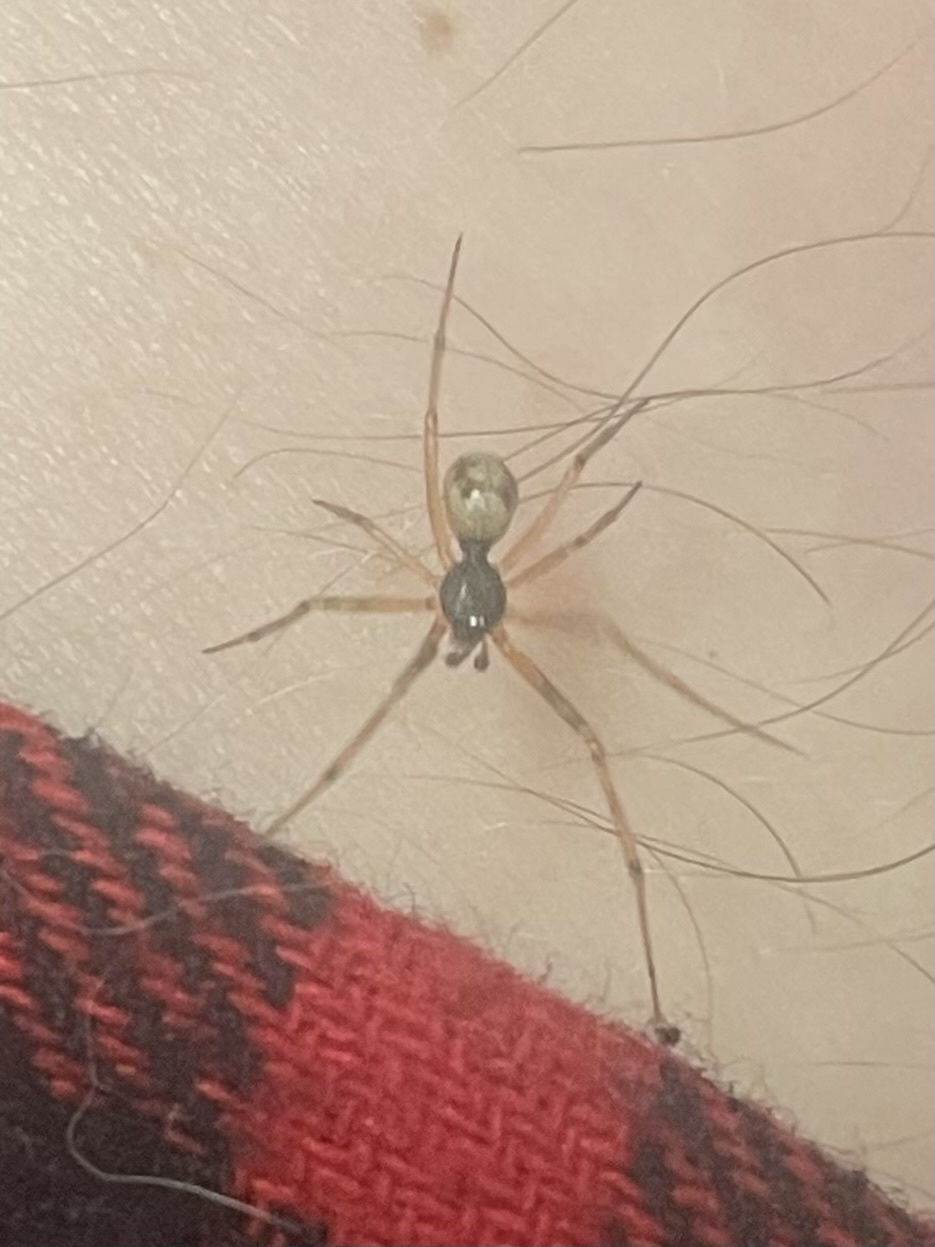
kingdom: Animalia
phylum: Arthropoda
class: Arachnida
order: Araneae
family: Theridiidae
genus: Steatoda
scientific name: Steatoda triangulosa
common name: Triangulate bud spider
